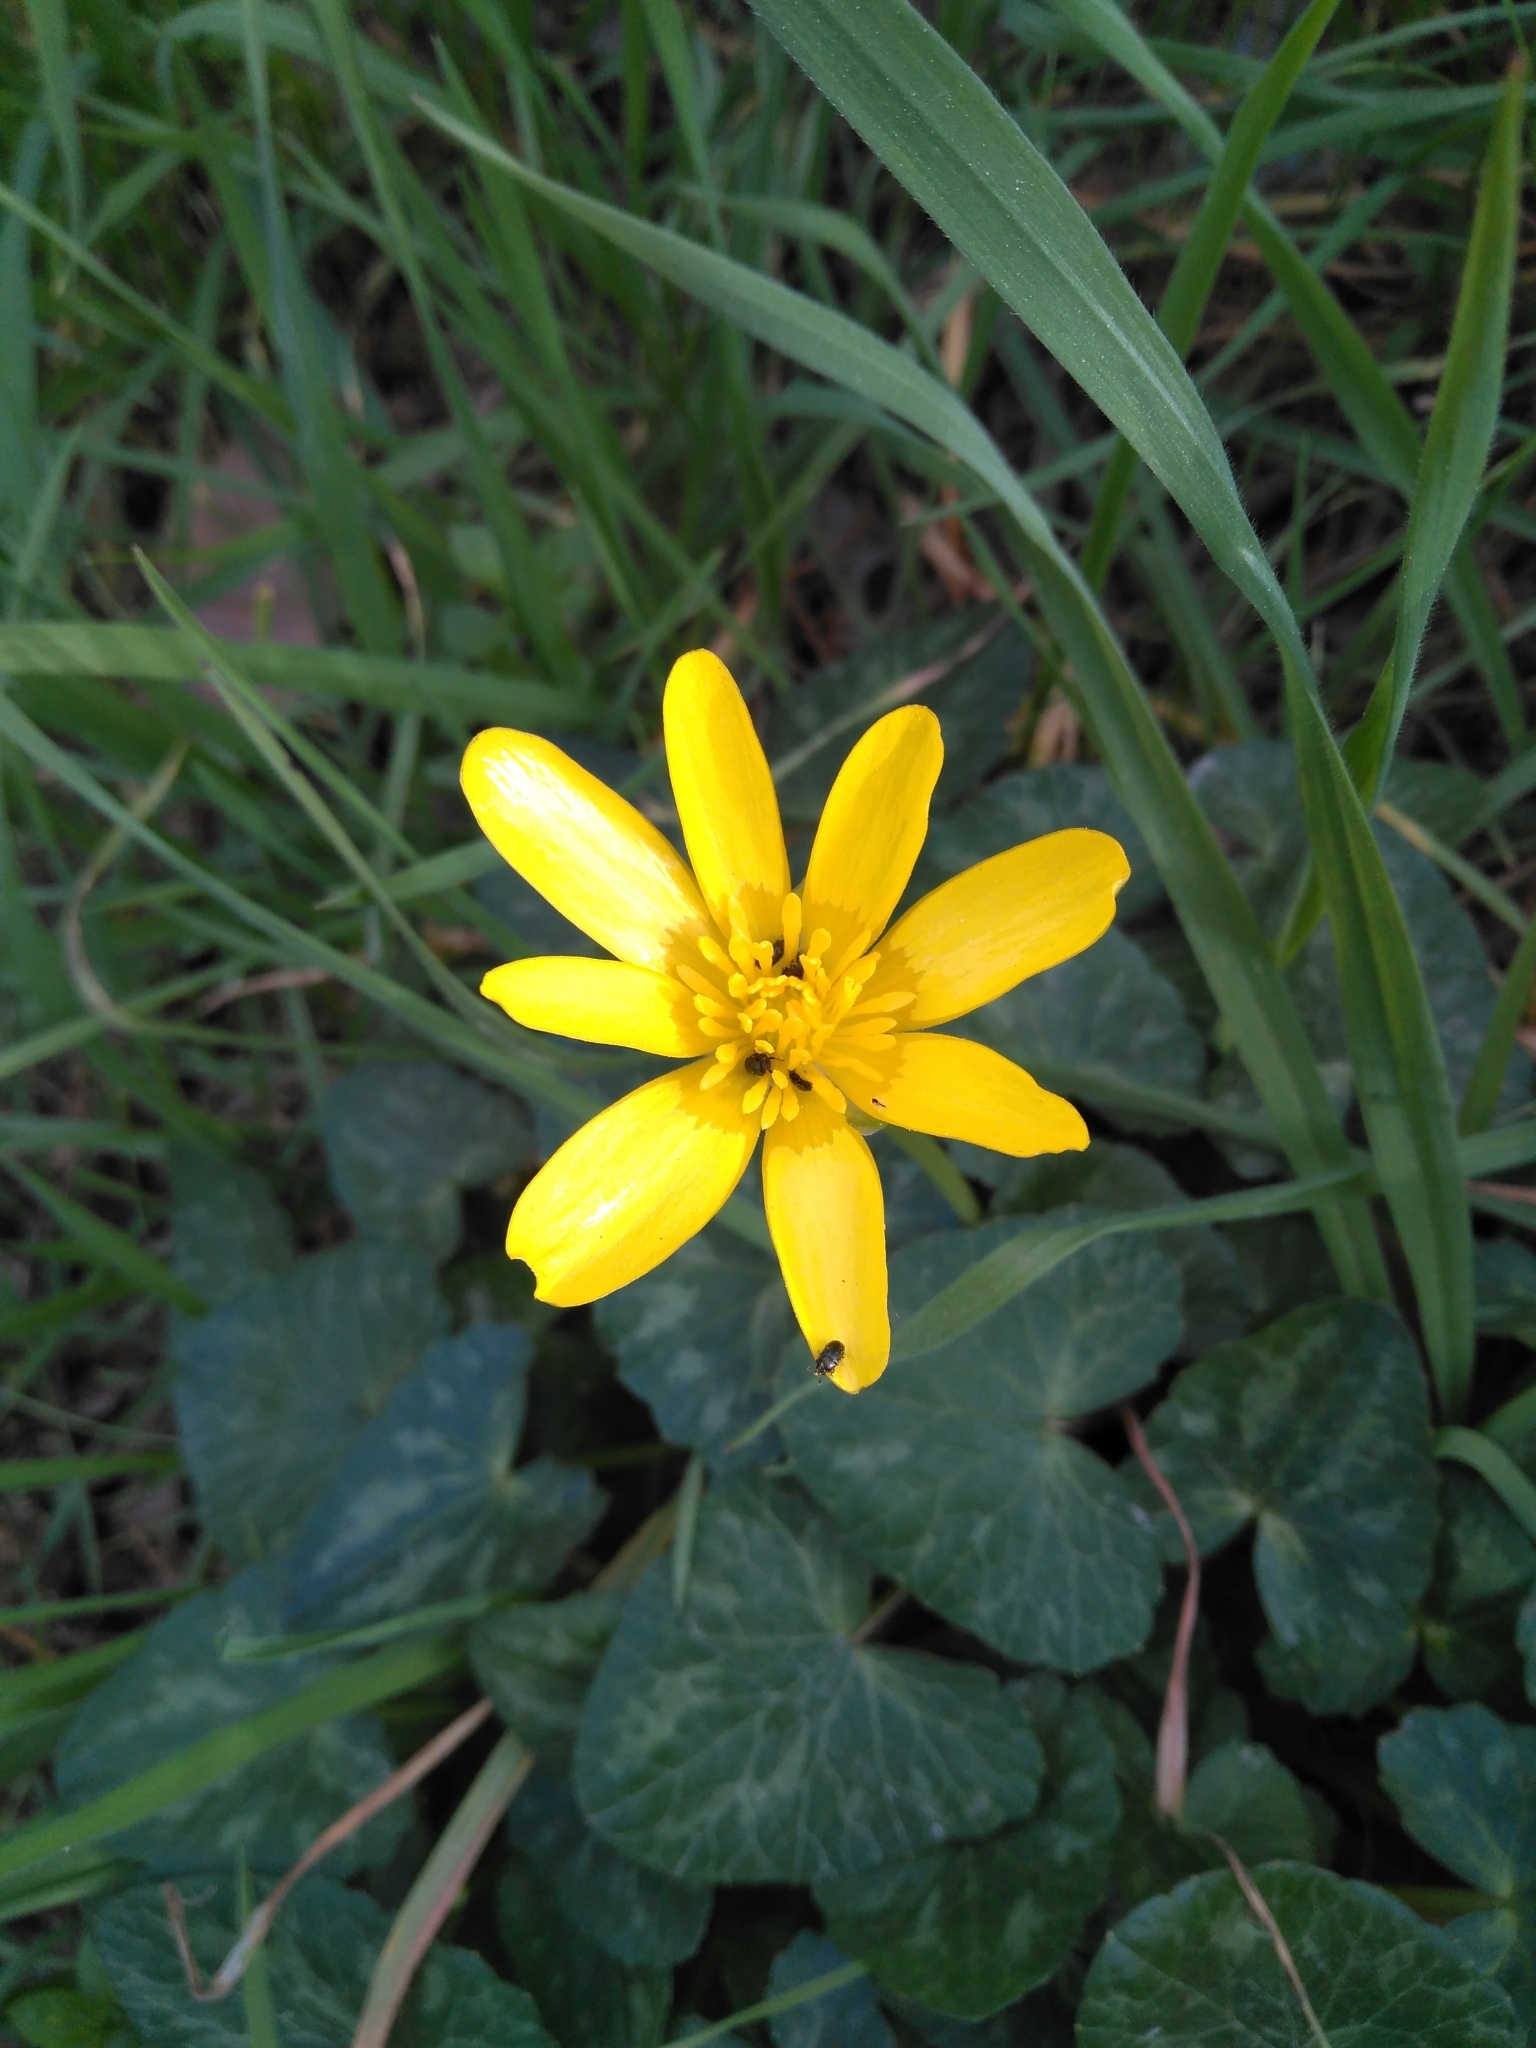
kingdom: Plantae
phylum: Tracheophyta
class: Magnoliopsida
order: Ranunculales
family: Ranunculaceae
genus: Ficaria
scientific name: Ficaria verna
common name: Lesser celandine
